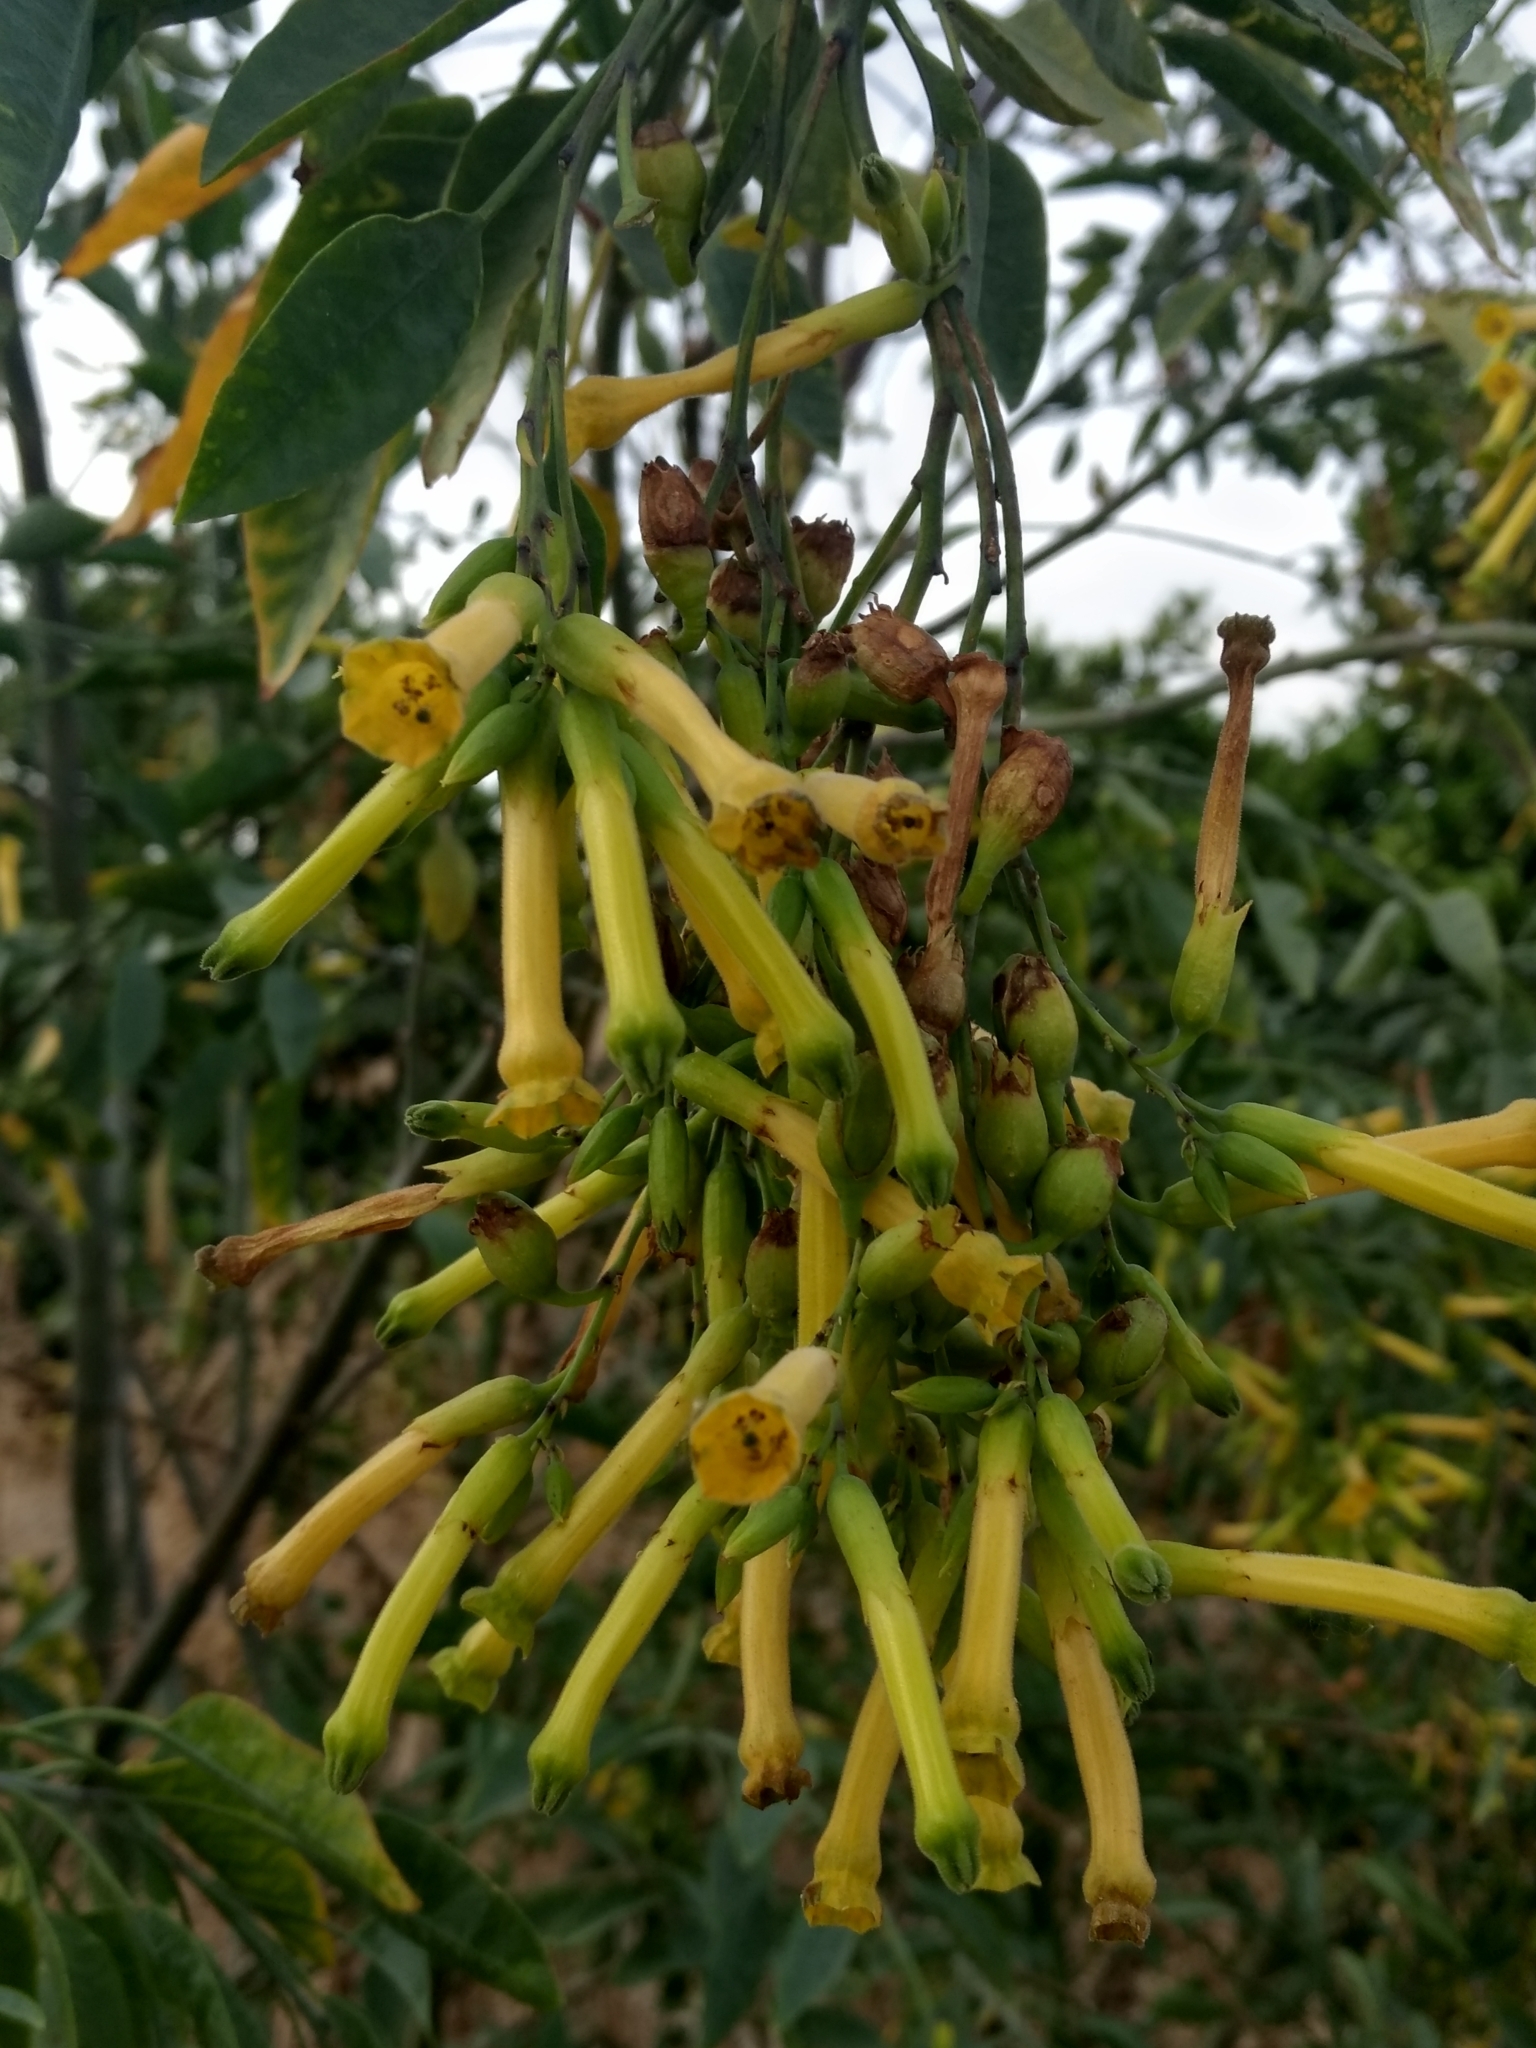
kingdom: Plantae
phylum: Tracheophyta
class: Magnoliopsida
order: Solanales
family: Solanaceae
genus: Nicotiana
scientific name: Nicotiana glauca
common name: Tree tobacco
